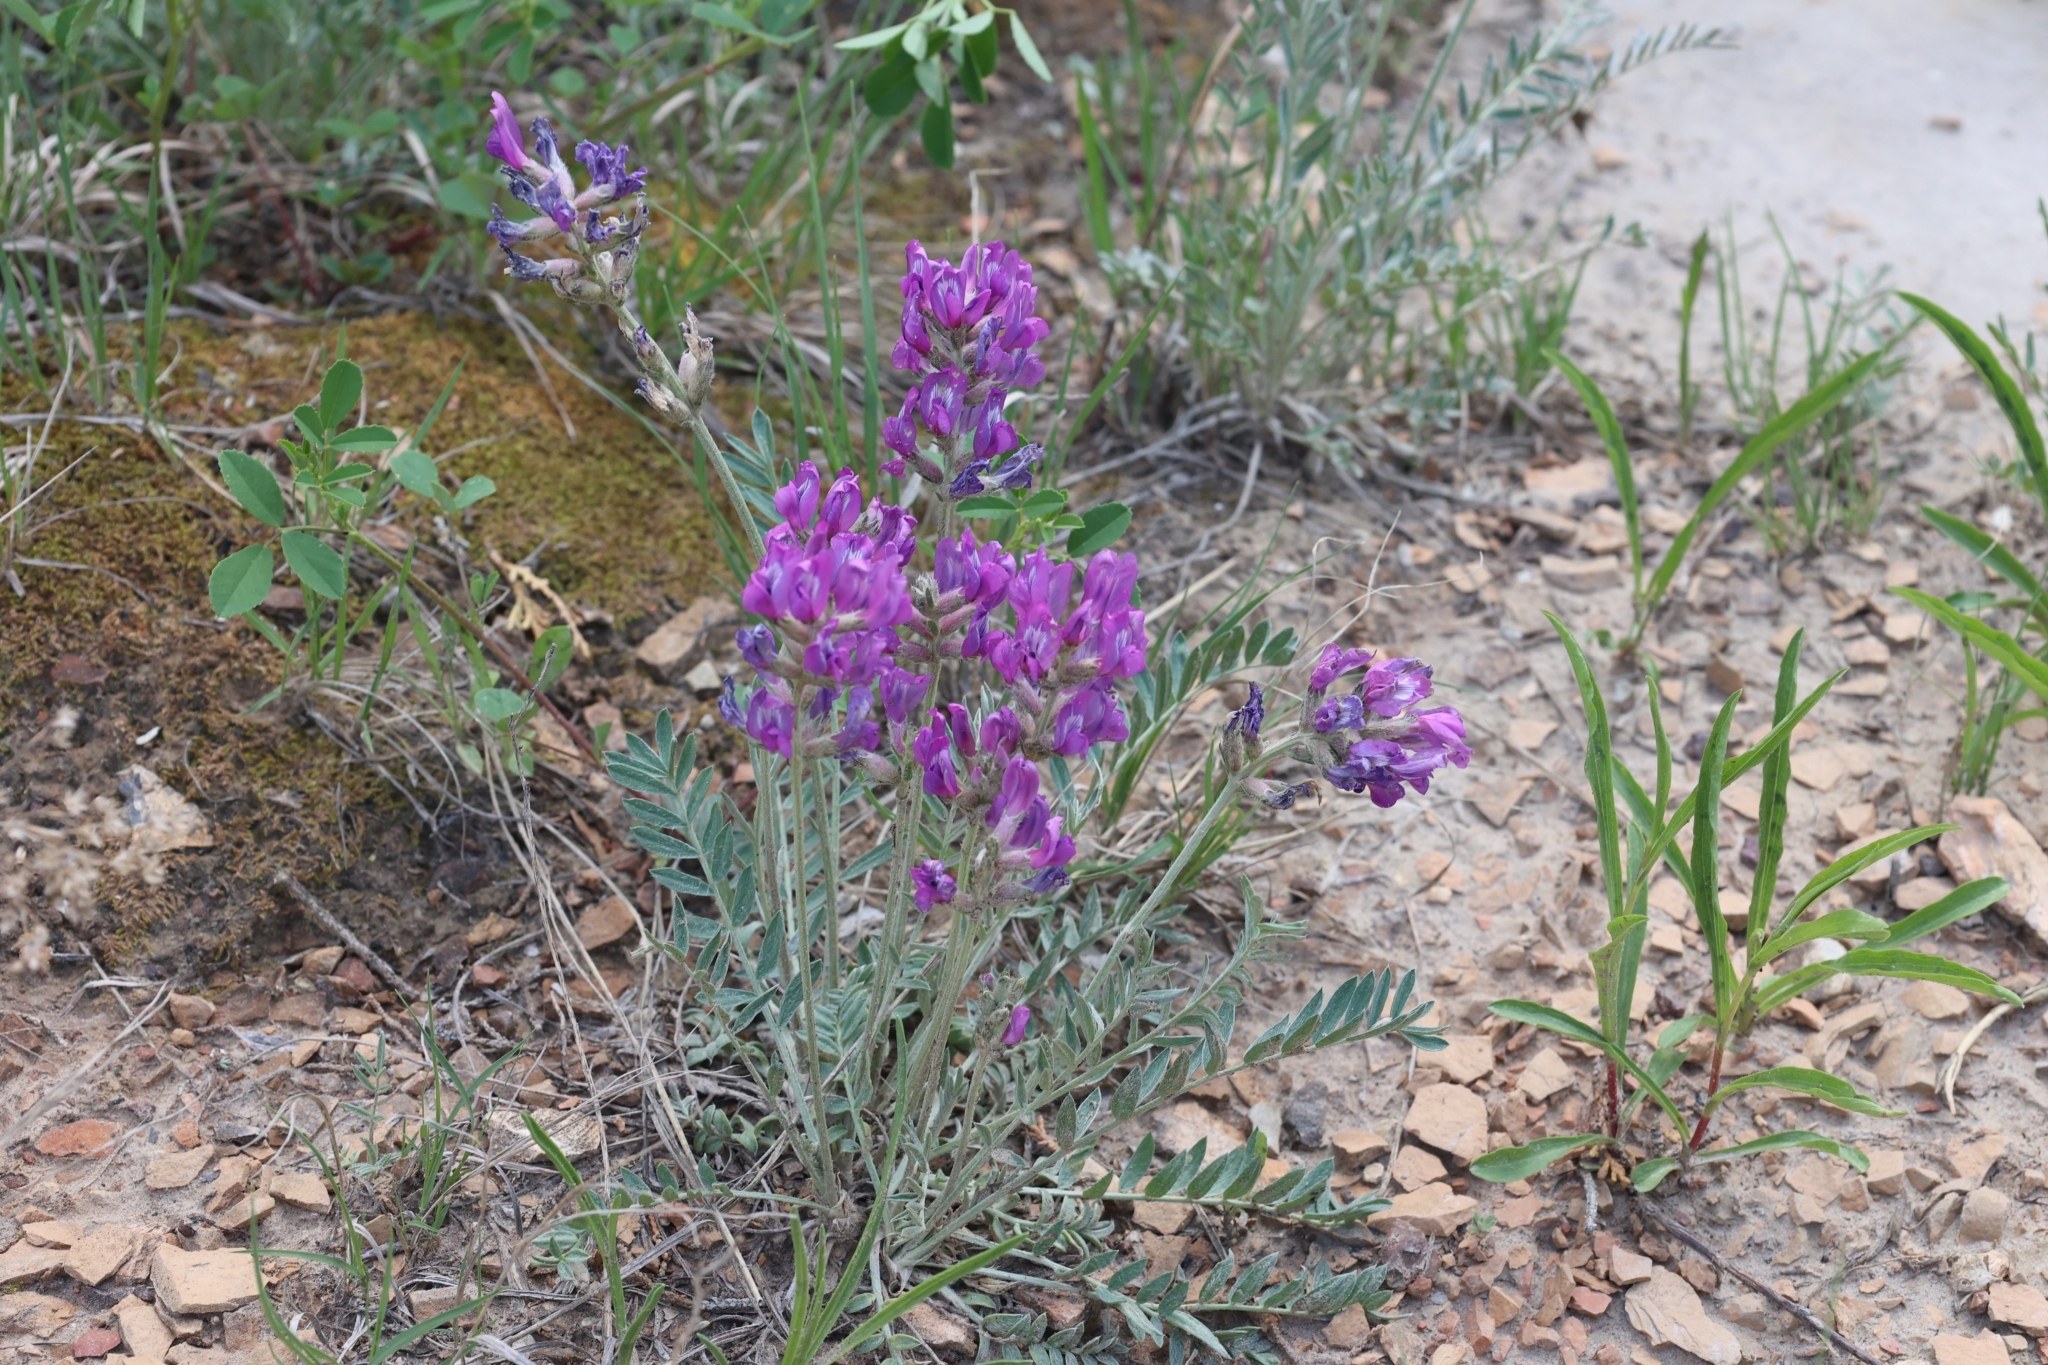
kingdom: Plantae
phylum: Tracheophyta
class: Magnoliopsida
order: Fabales
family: Fabaceae
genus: Oxytropis
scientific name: Oxytropis lambertii
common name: Purple locoweed
